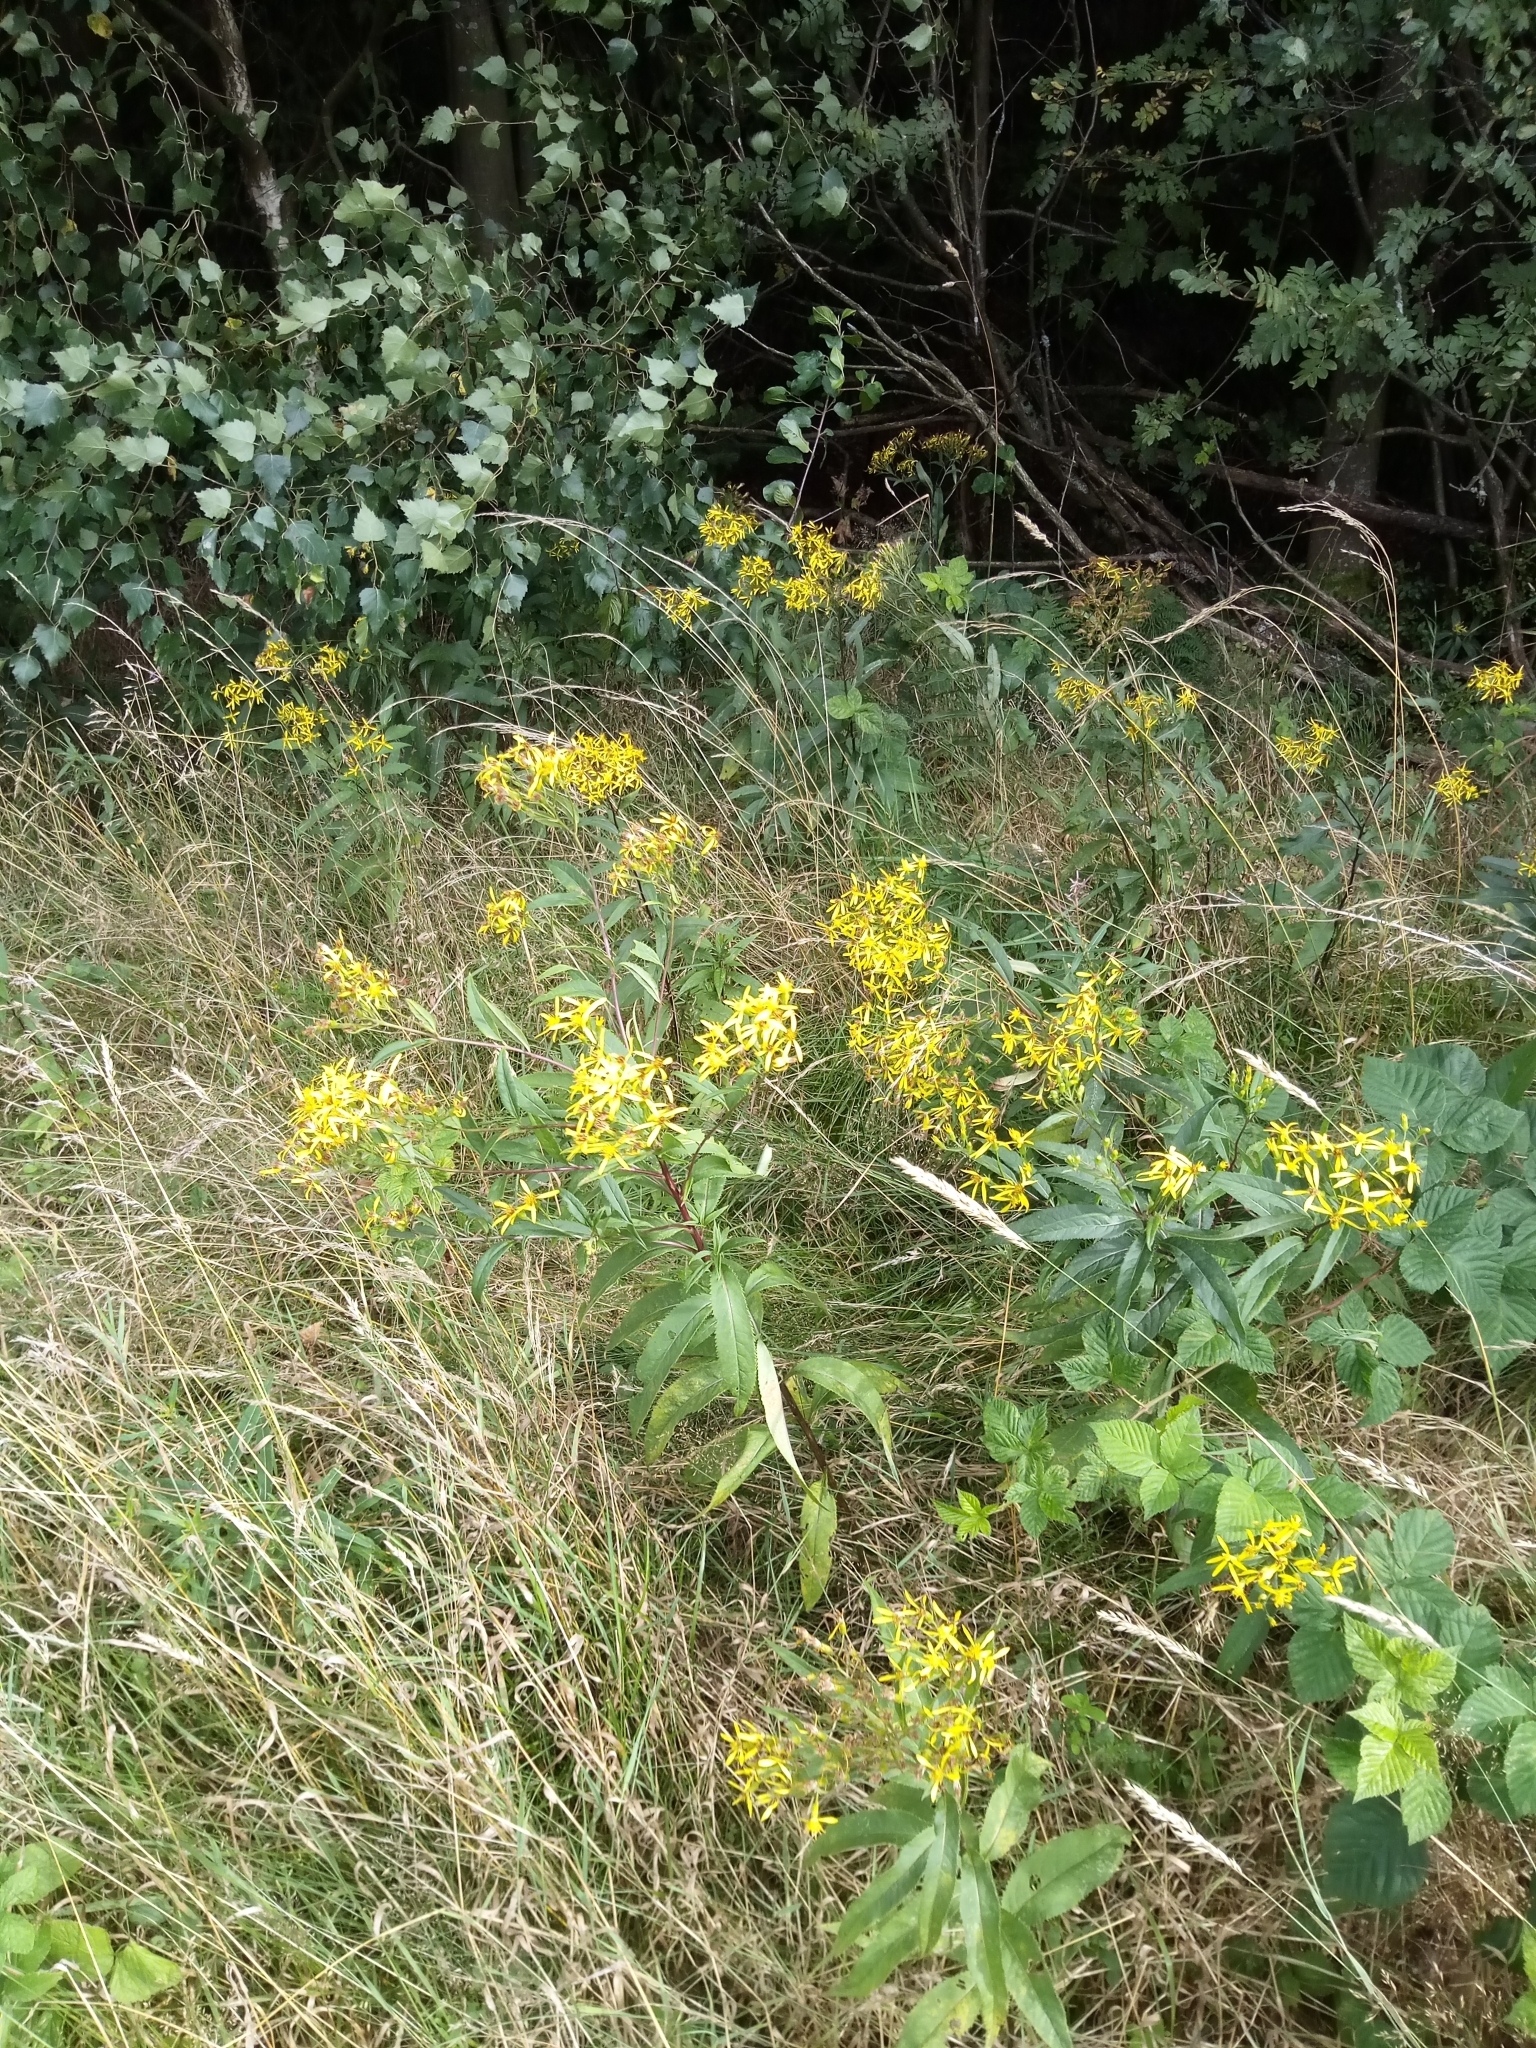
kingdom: Plantae
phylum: Tracheophyta
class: Magnoliopsida
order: Asterales
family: Asteraceae
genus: Senecio
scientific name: Senecio ovatus
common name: Wood ragwort
